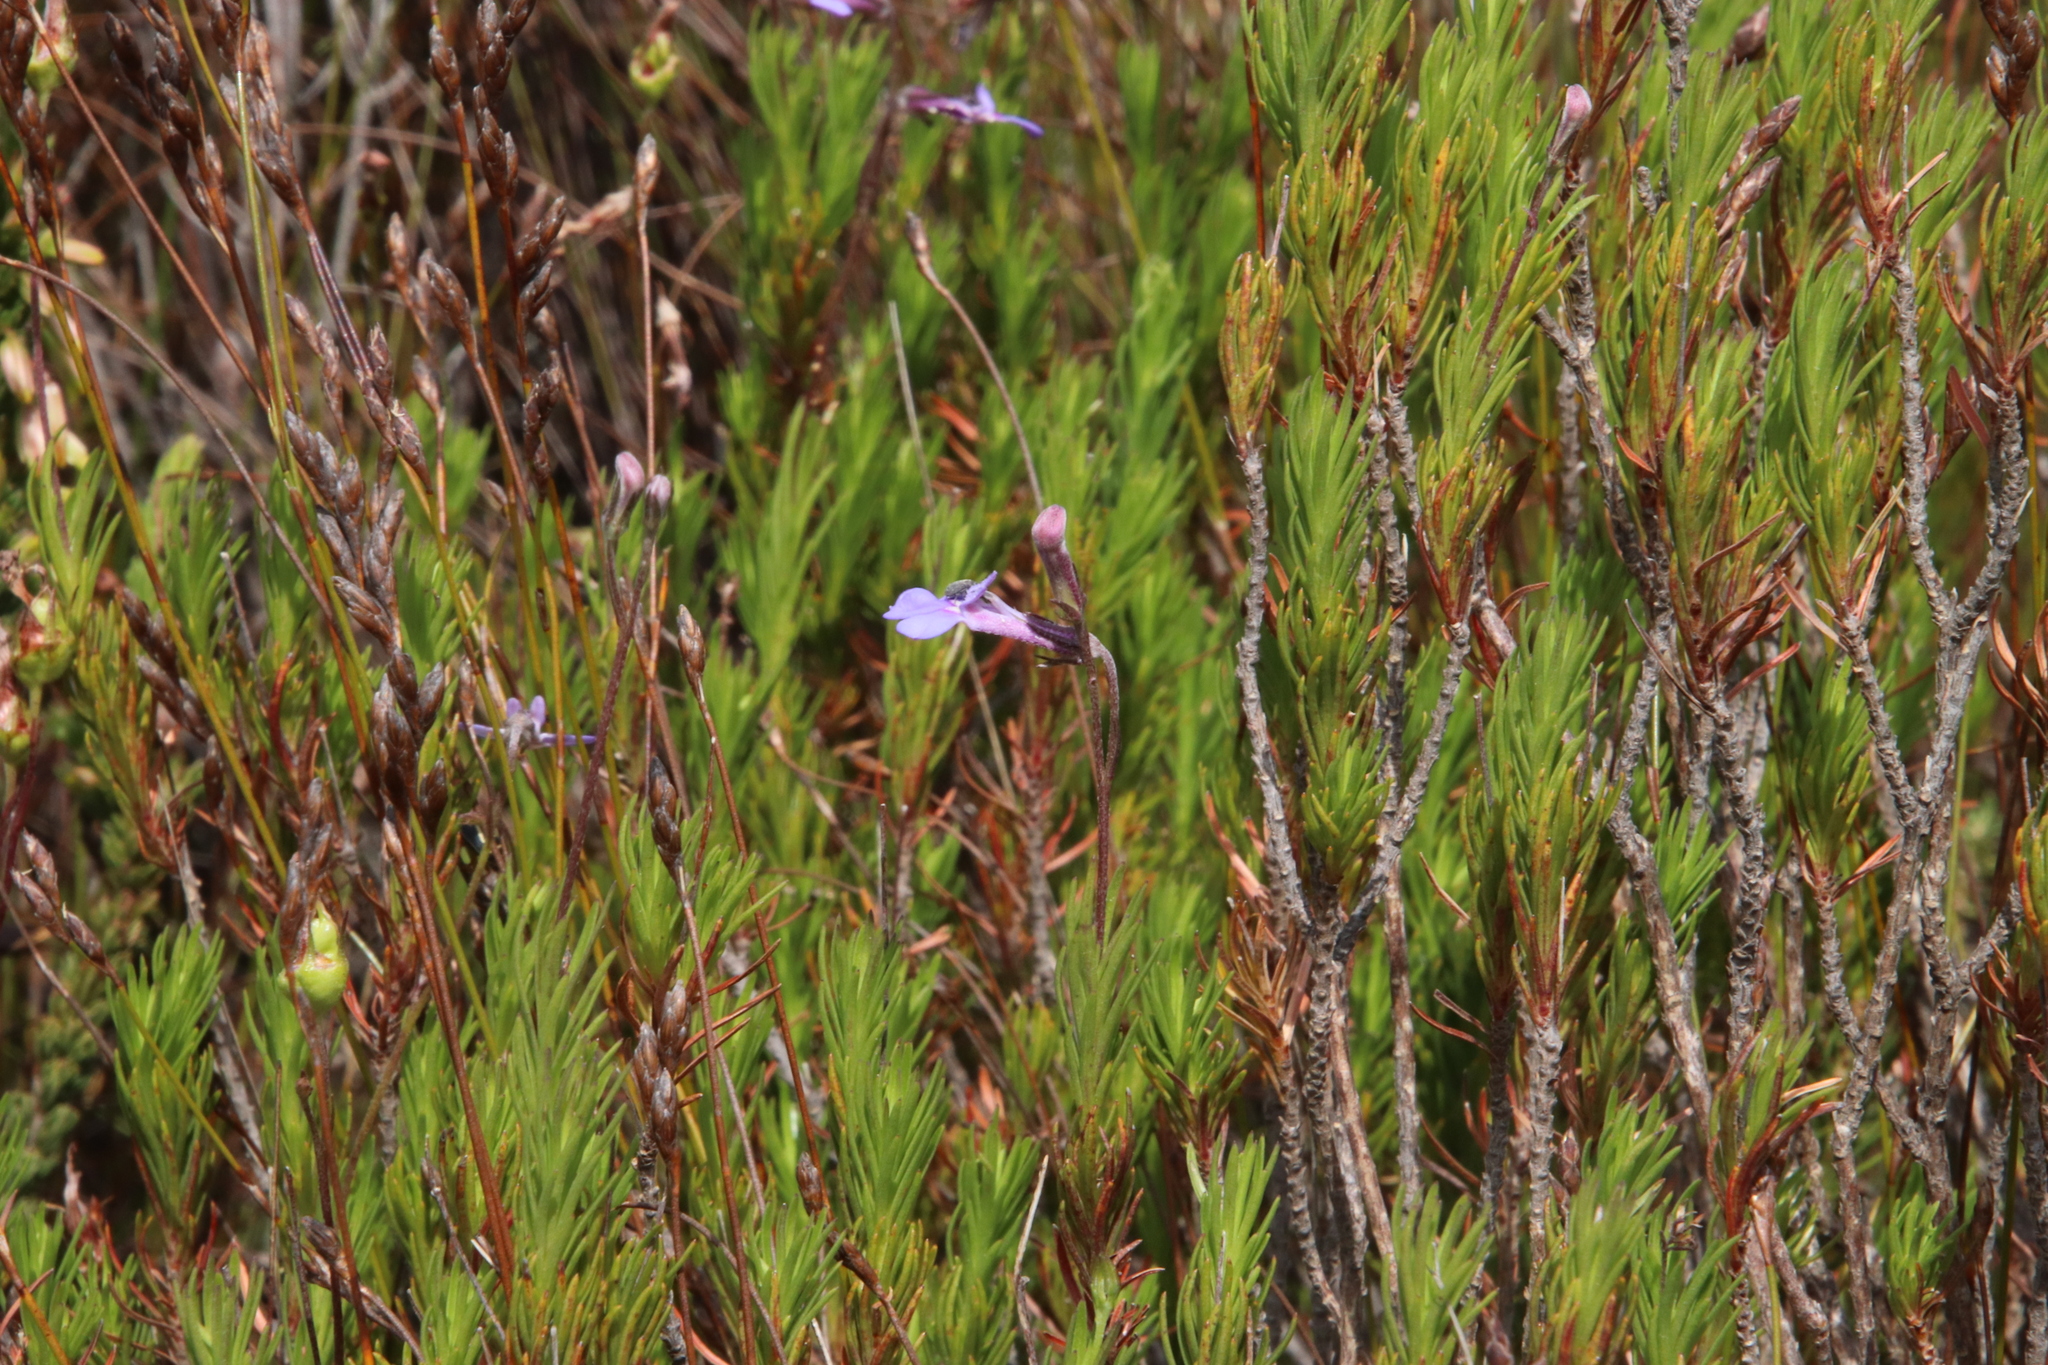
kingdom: Plantae
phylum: Tracheophyta
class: Magnoliopsida
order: Asterales
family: Campanulaceae
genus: Lobelia
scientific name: Lobelia pinifolia
